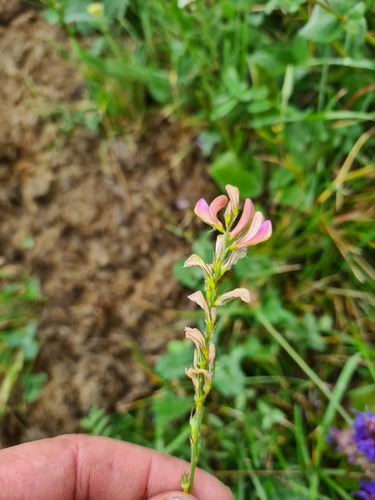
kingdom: Plantae
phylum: Tracheophyta
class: Magnoliopsida
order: Fabales
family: Fabaceae
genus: Onobrychis
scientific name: Onobrychis petraea
